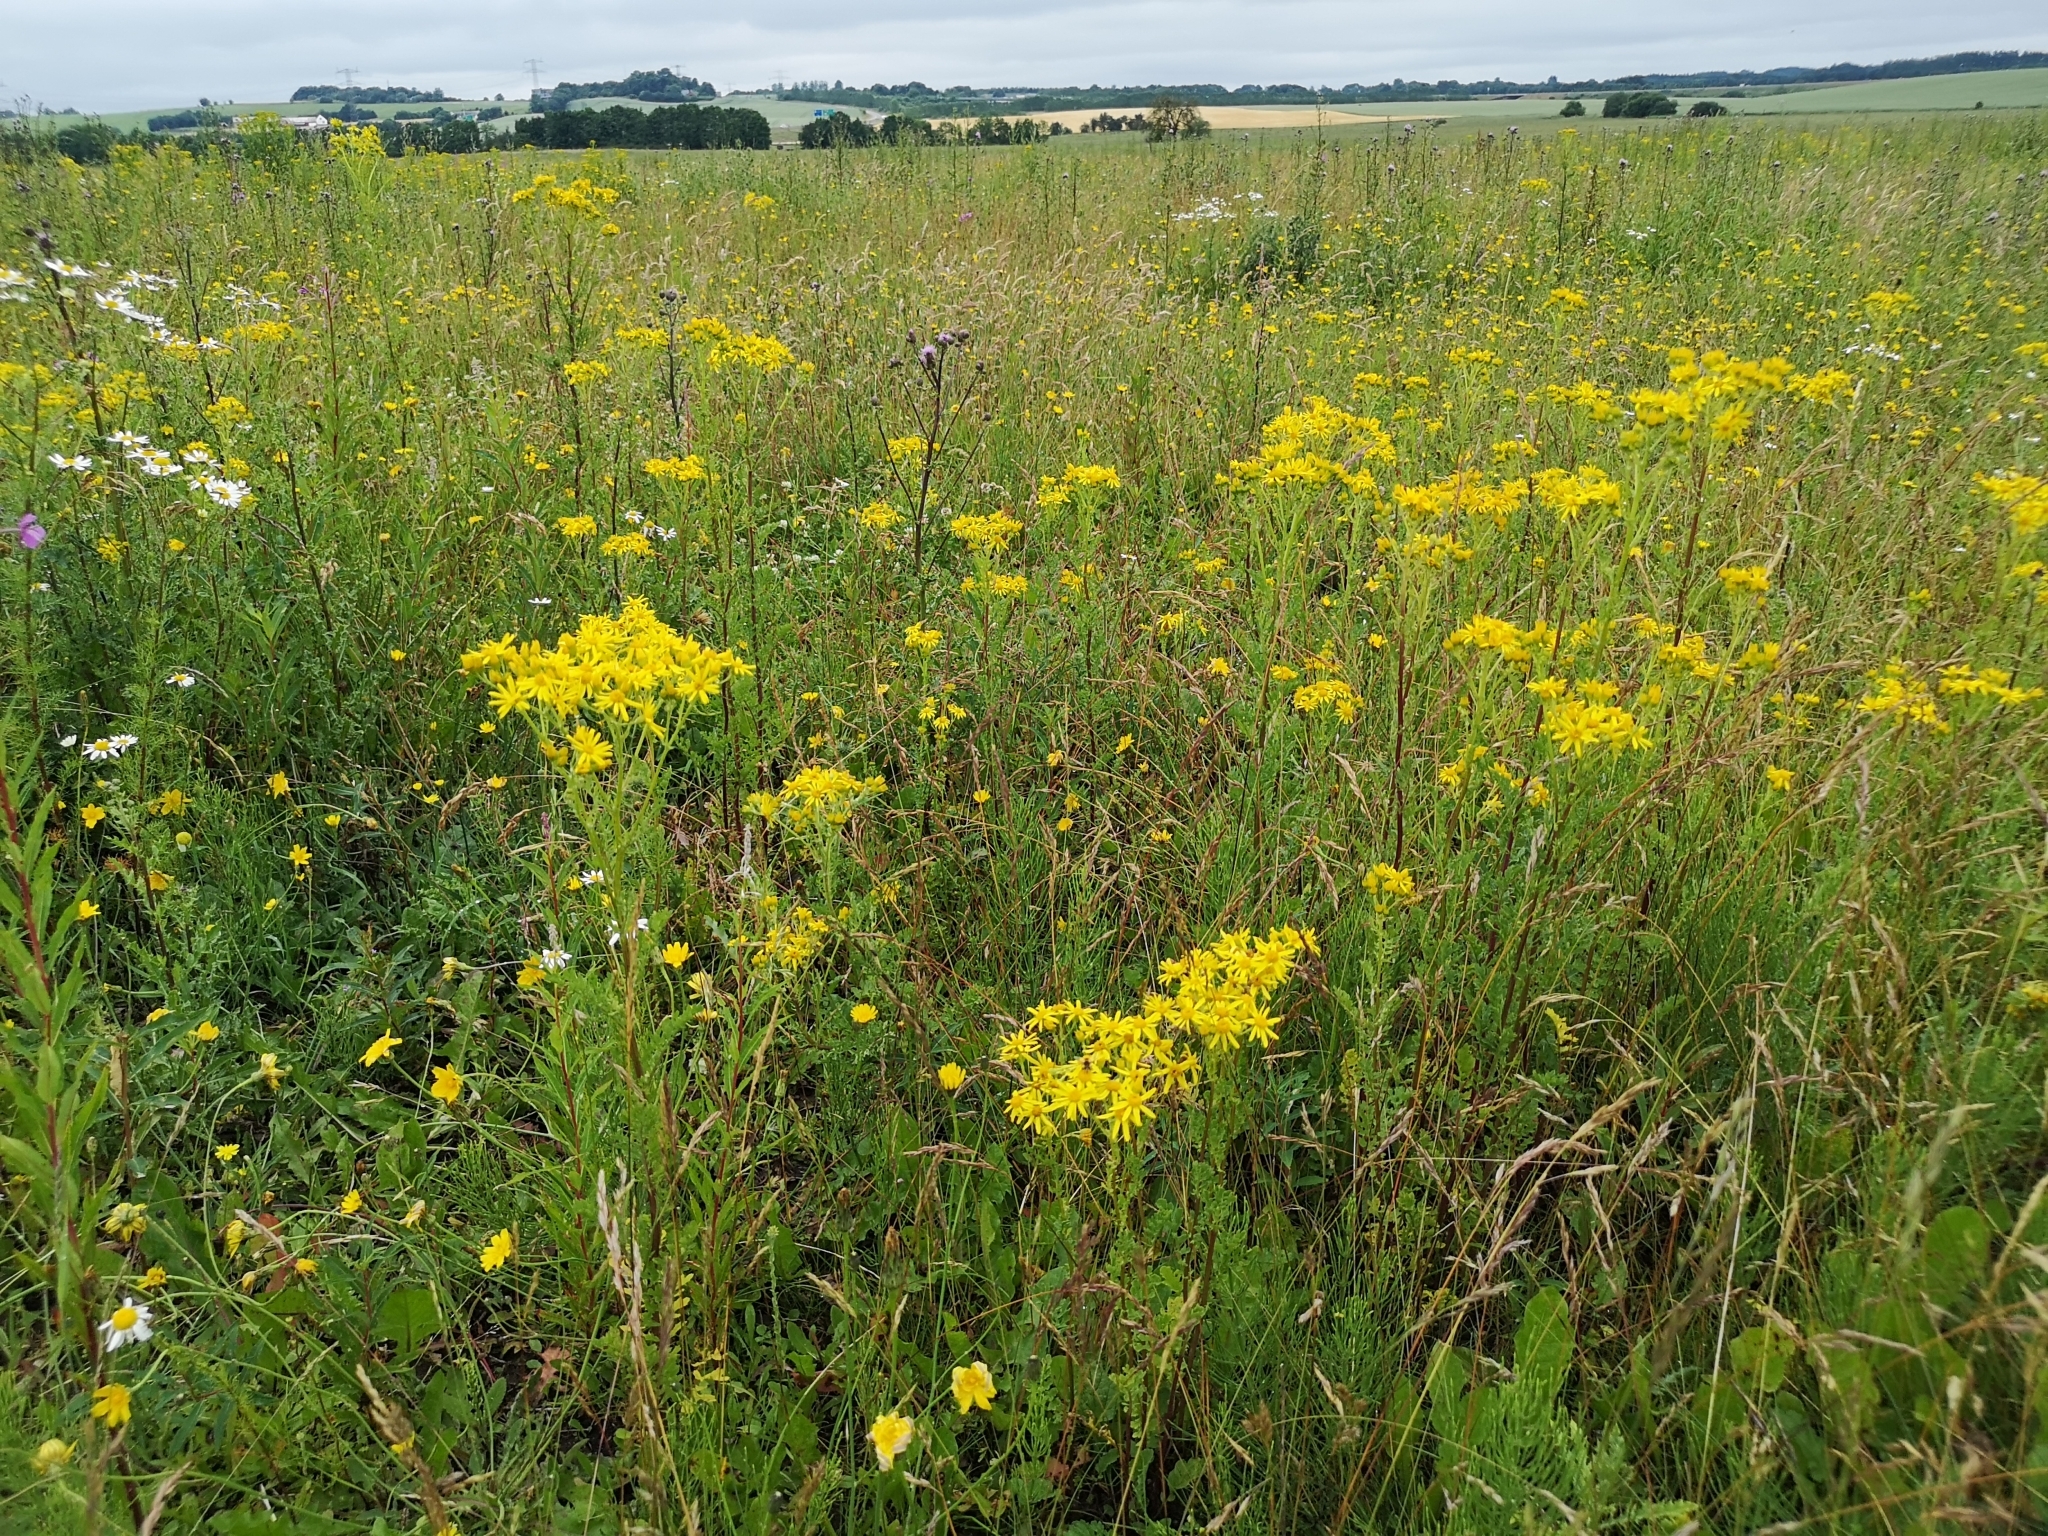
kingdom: Plantae
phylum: Tracheophyta
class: Magnoliopsida
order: Asterales
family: Asteraceae
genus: Jacobaea
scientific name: Jacobaea vulgaris
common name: Stinking willie
